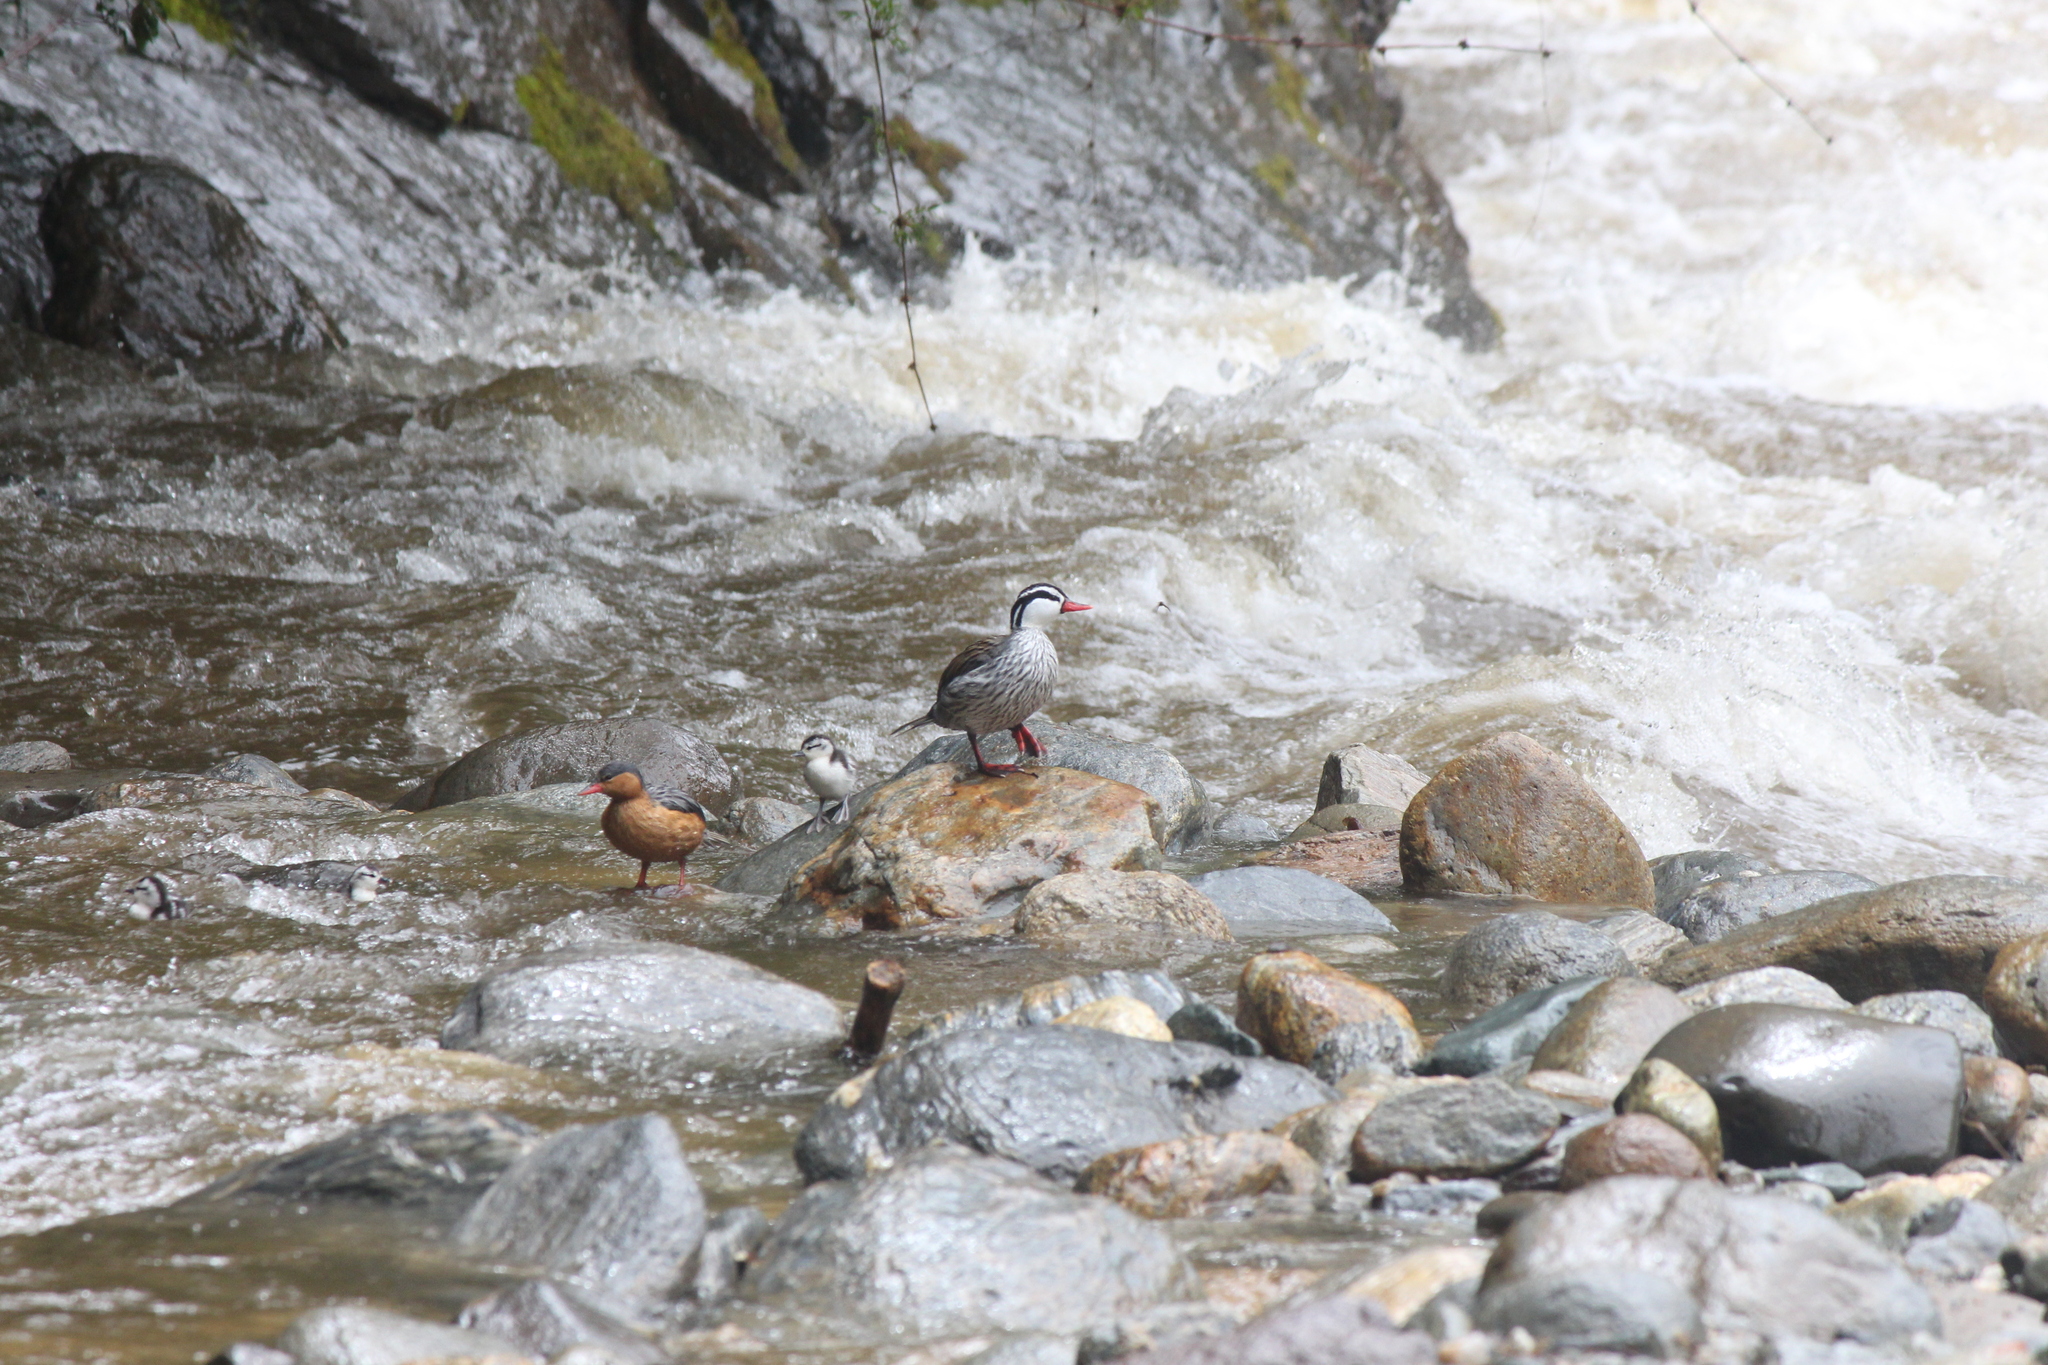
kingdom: Animalia
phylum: Chordata
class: Aves
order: Anseriformes
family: Anatidae
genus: Merganetta
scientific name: Merganetta armata
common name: Torrent duck
